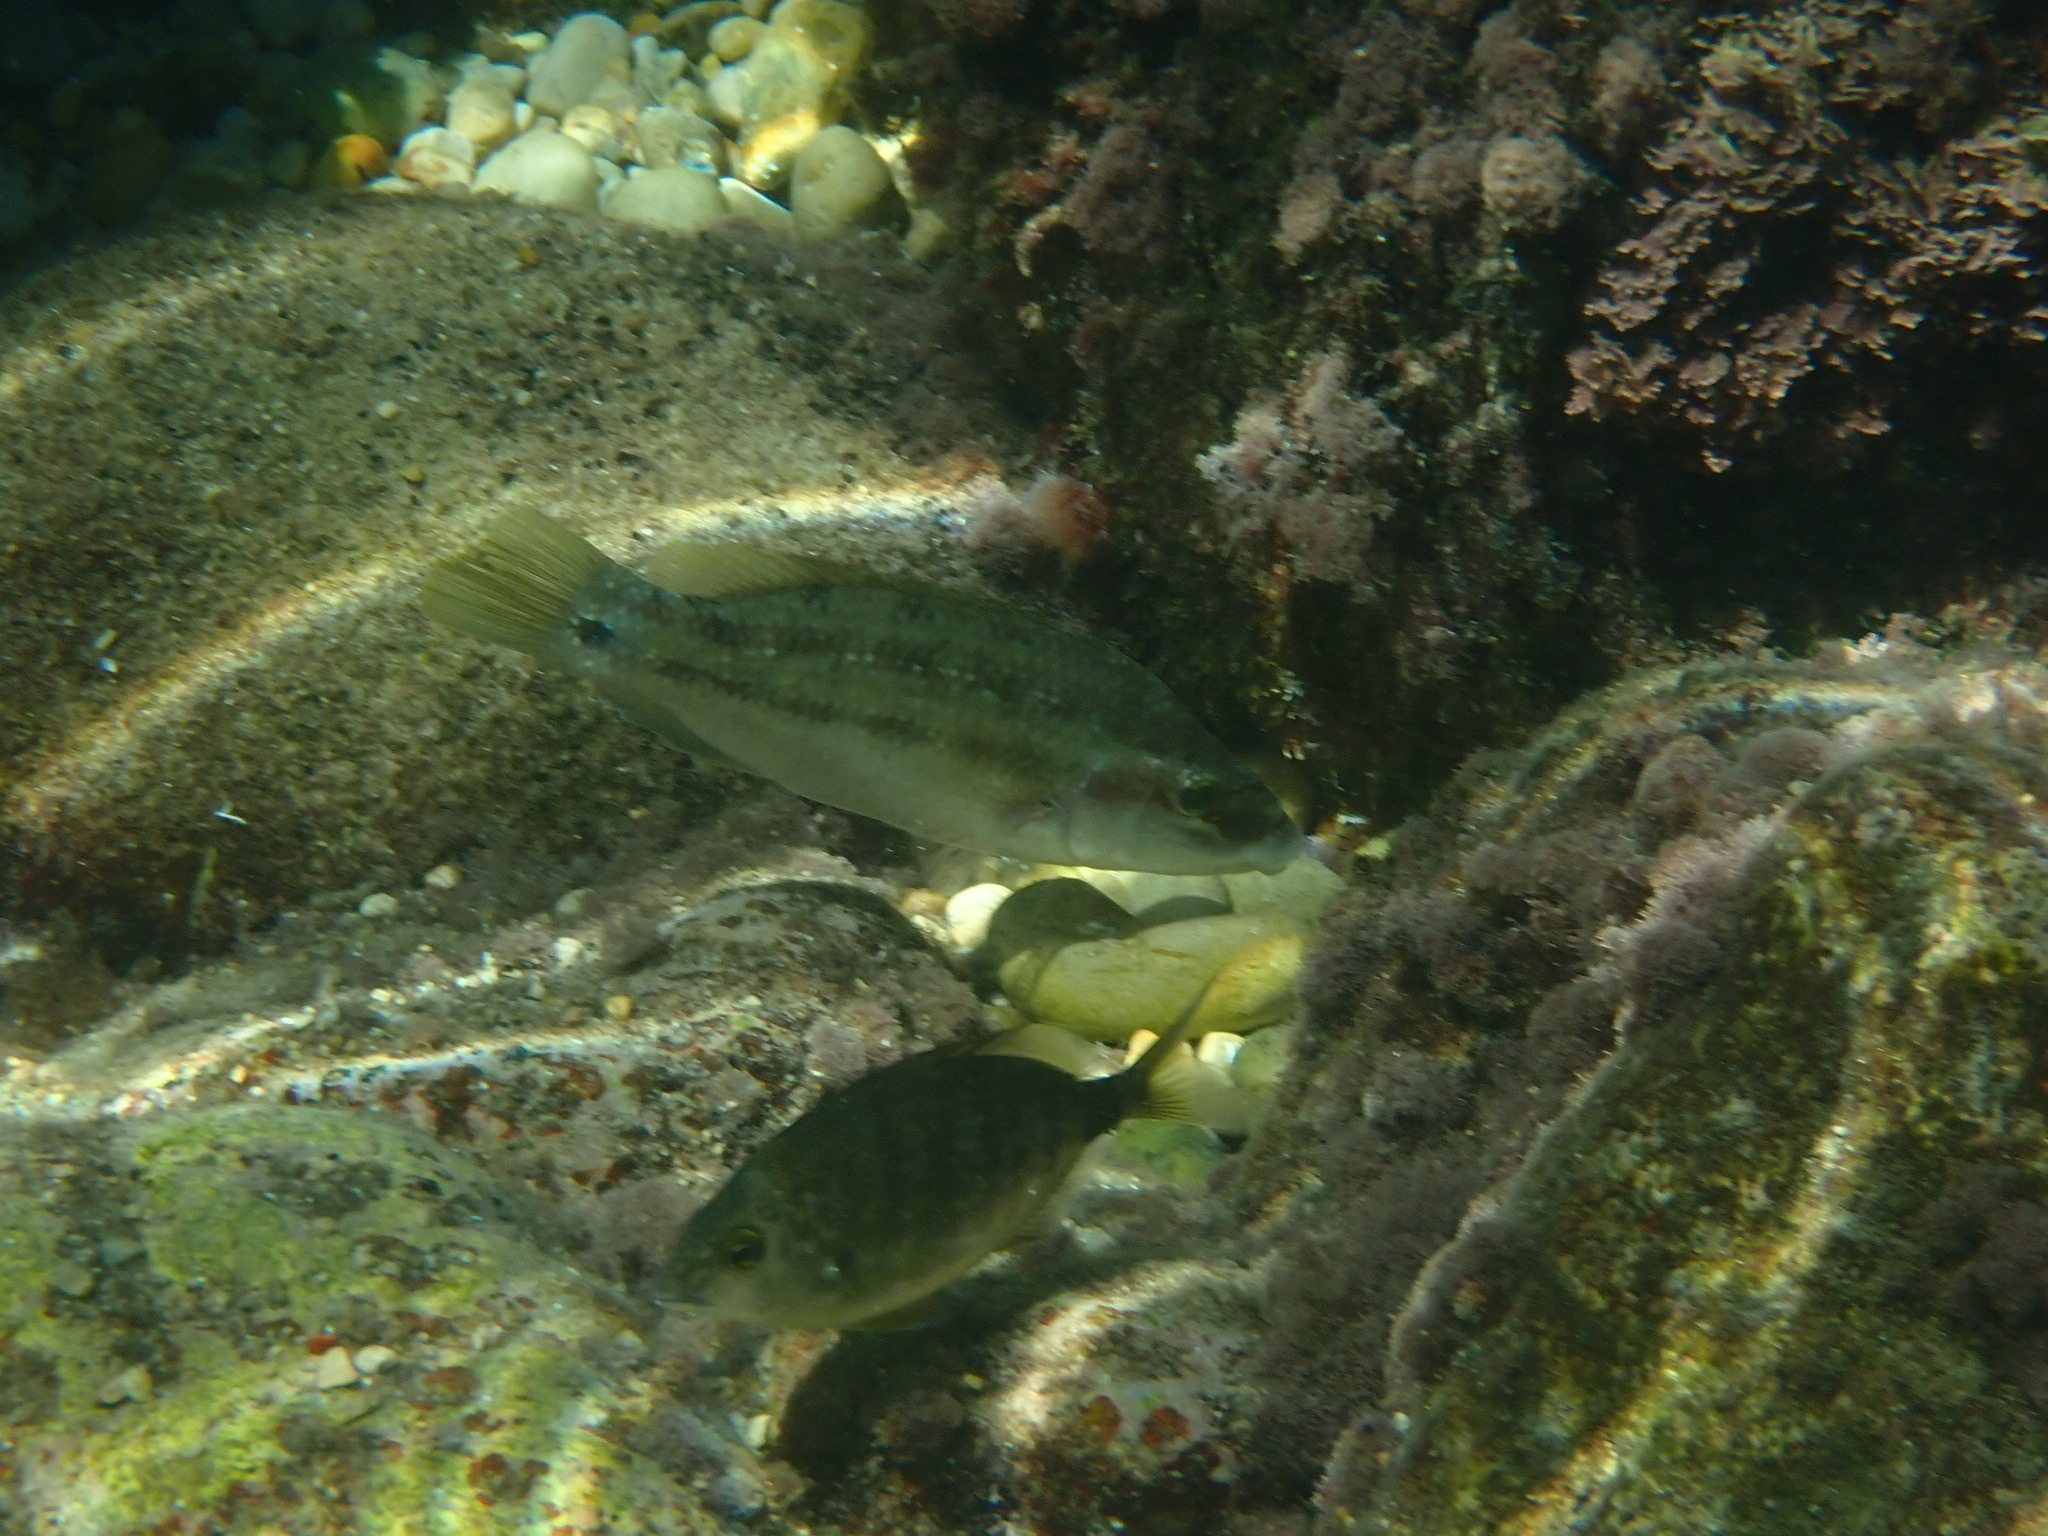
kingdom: Animalia
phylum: Chordata
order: Perciformes
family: Labridae
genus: Symphodus
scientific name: Symphodus tinca
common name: Peacock wrasse
